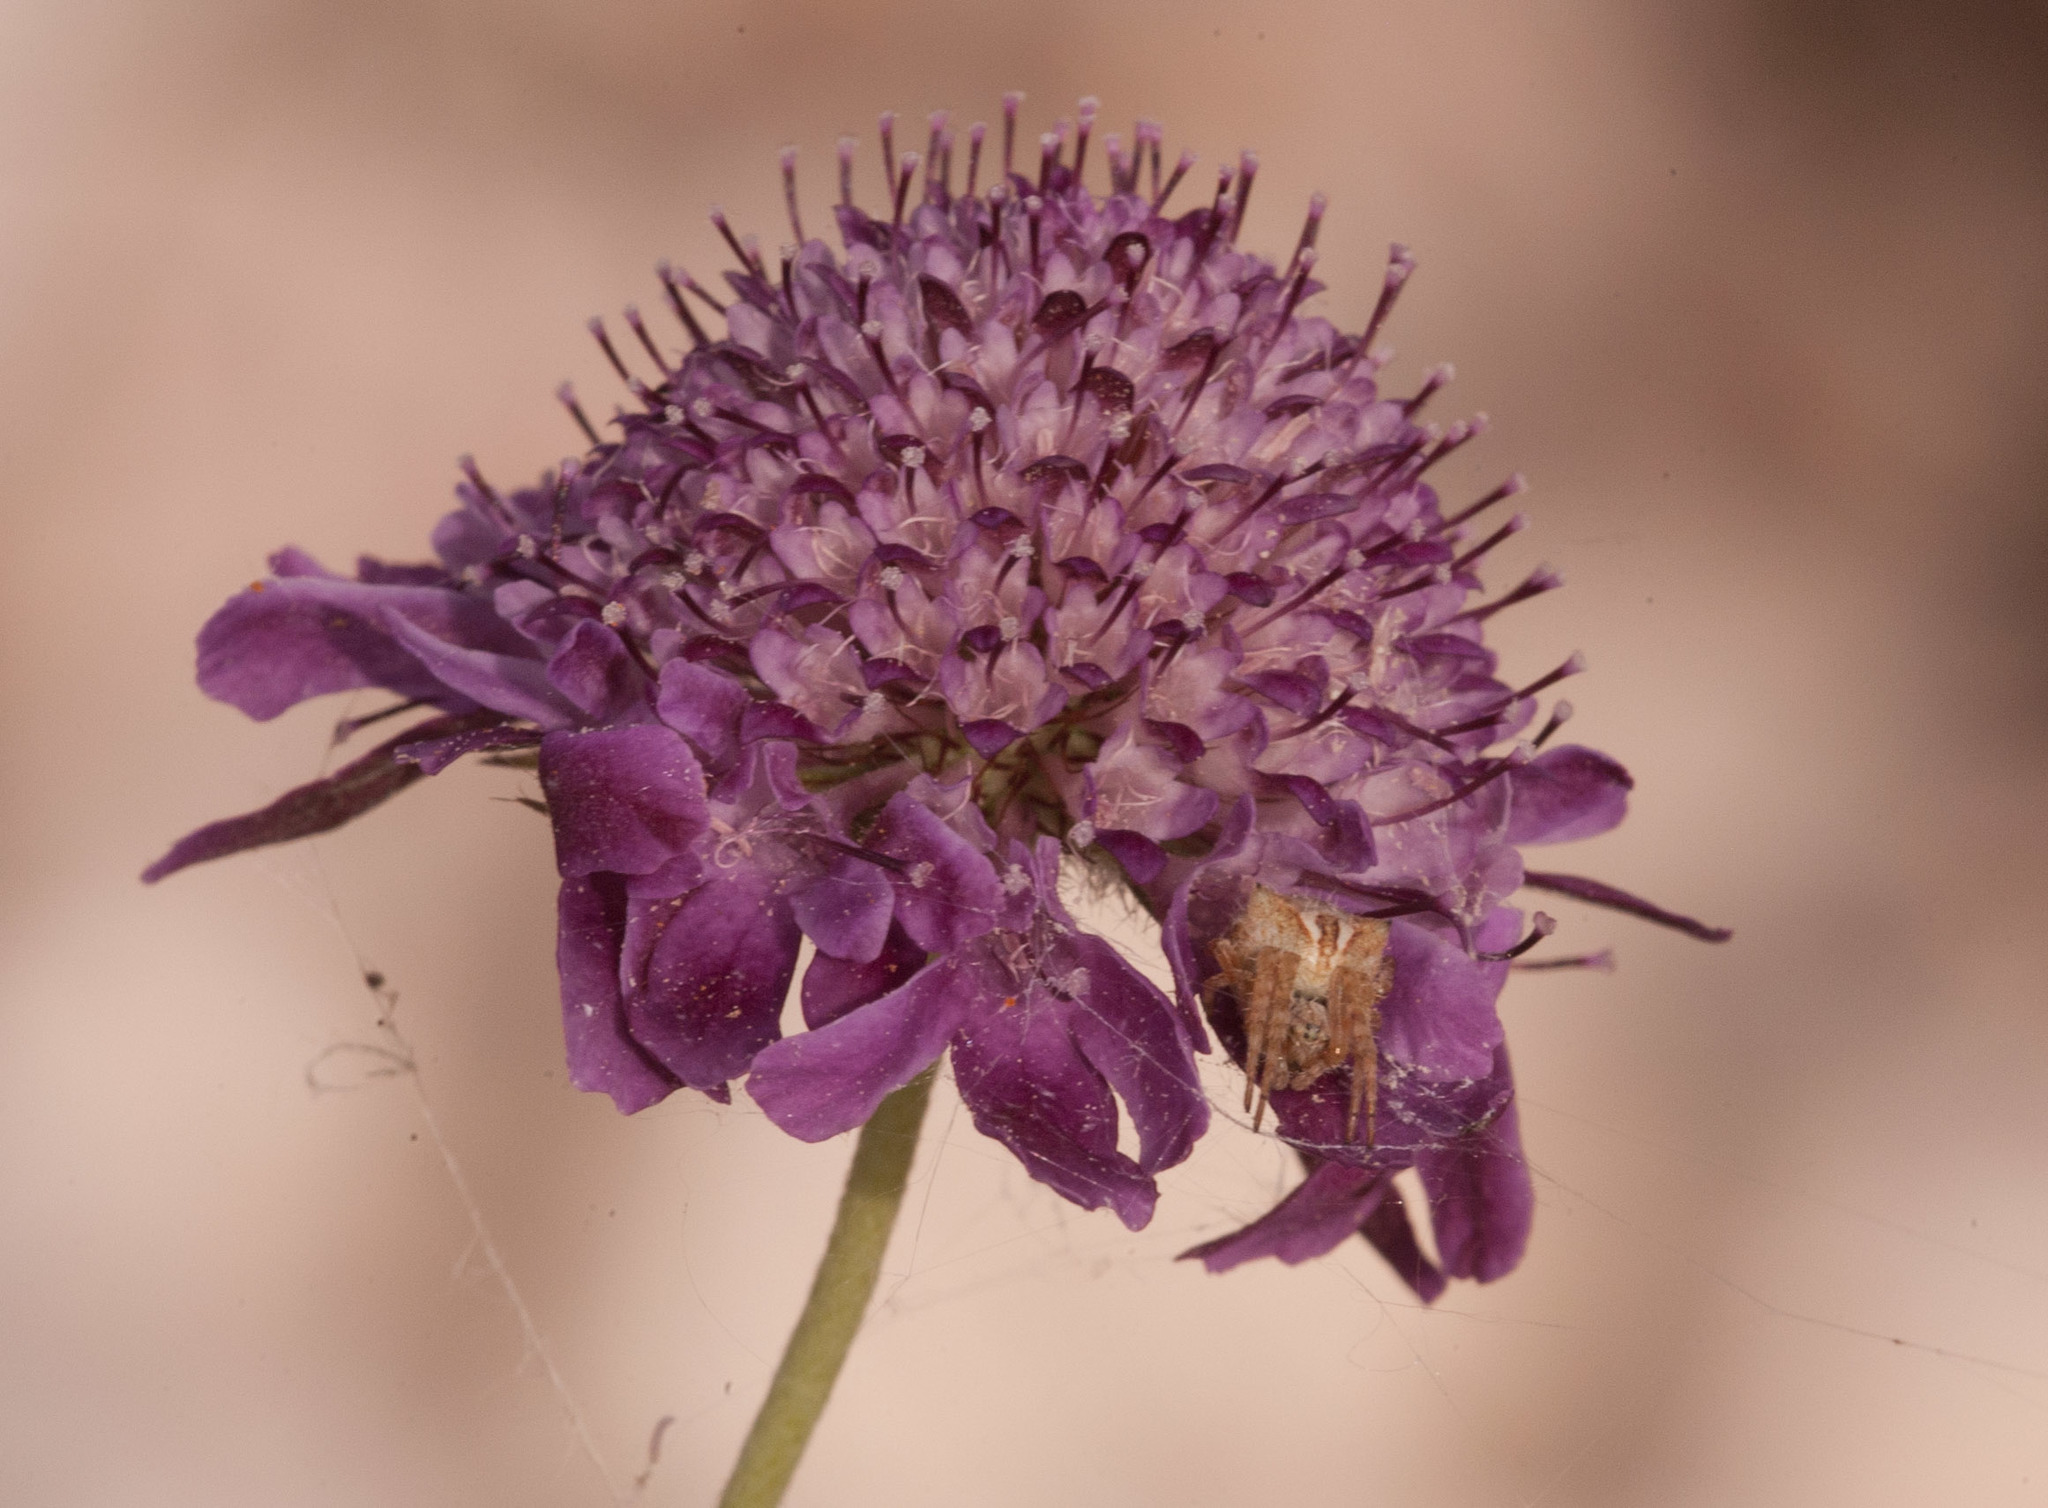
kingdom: Plantae
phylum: Tracheophyta
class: Magnoliopsida
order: Dipsacales
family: Caprifoliaceae
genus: Sixalix
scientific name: Sixalix atropurpurea
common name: Sweet scabious
